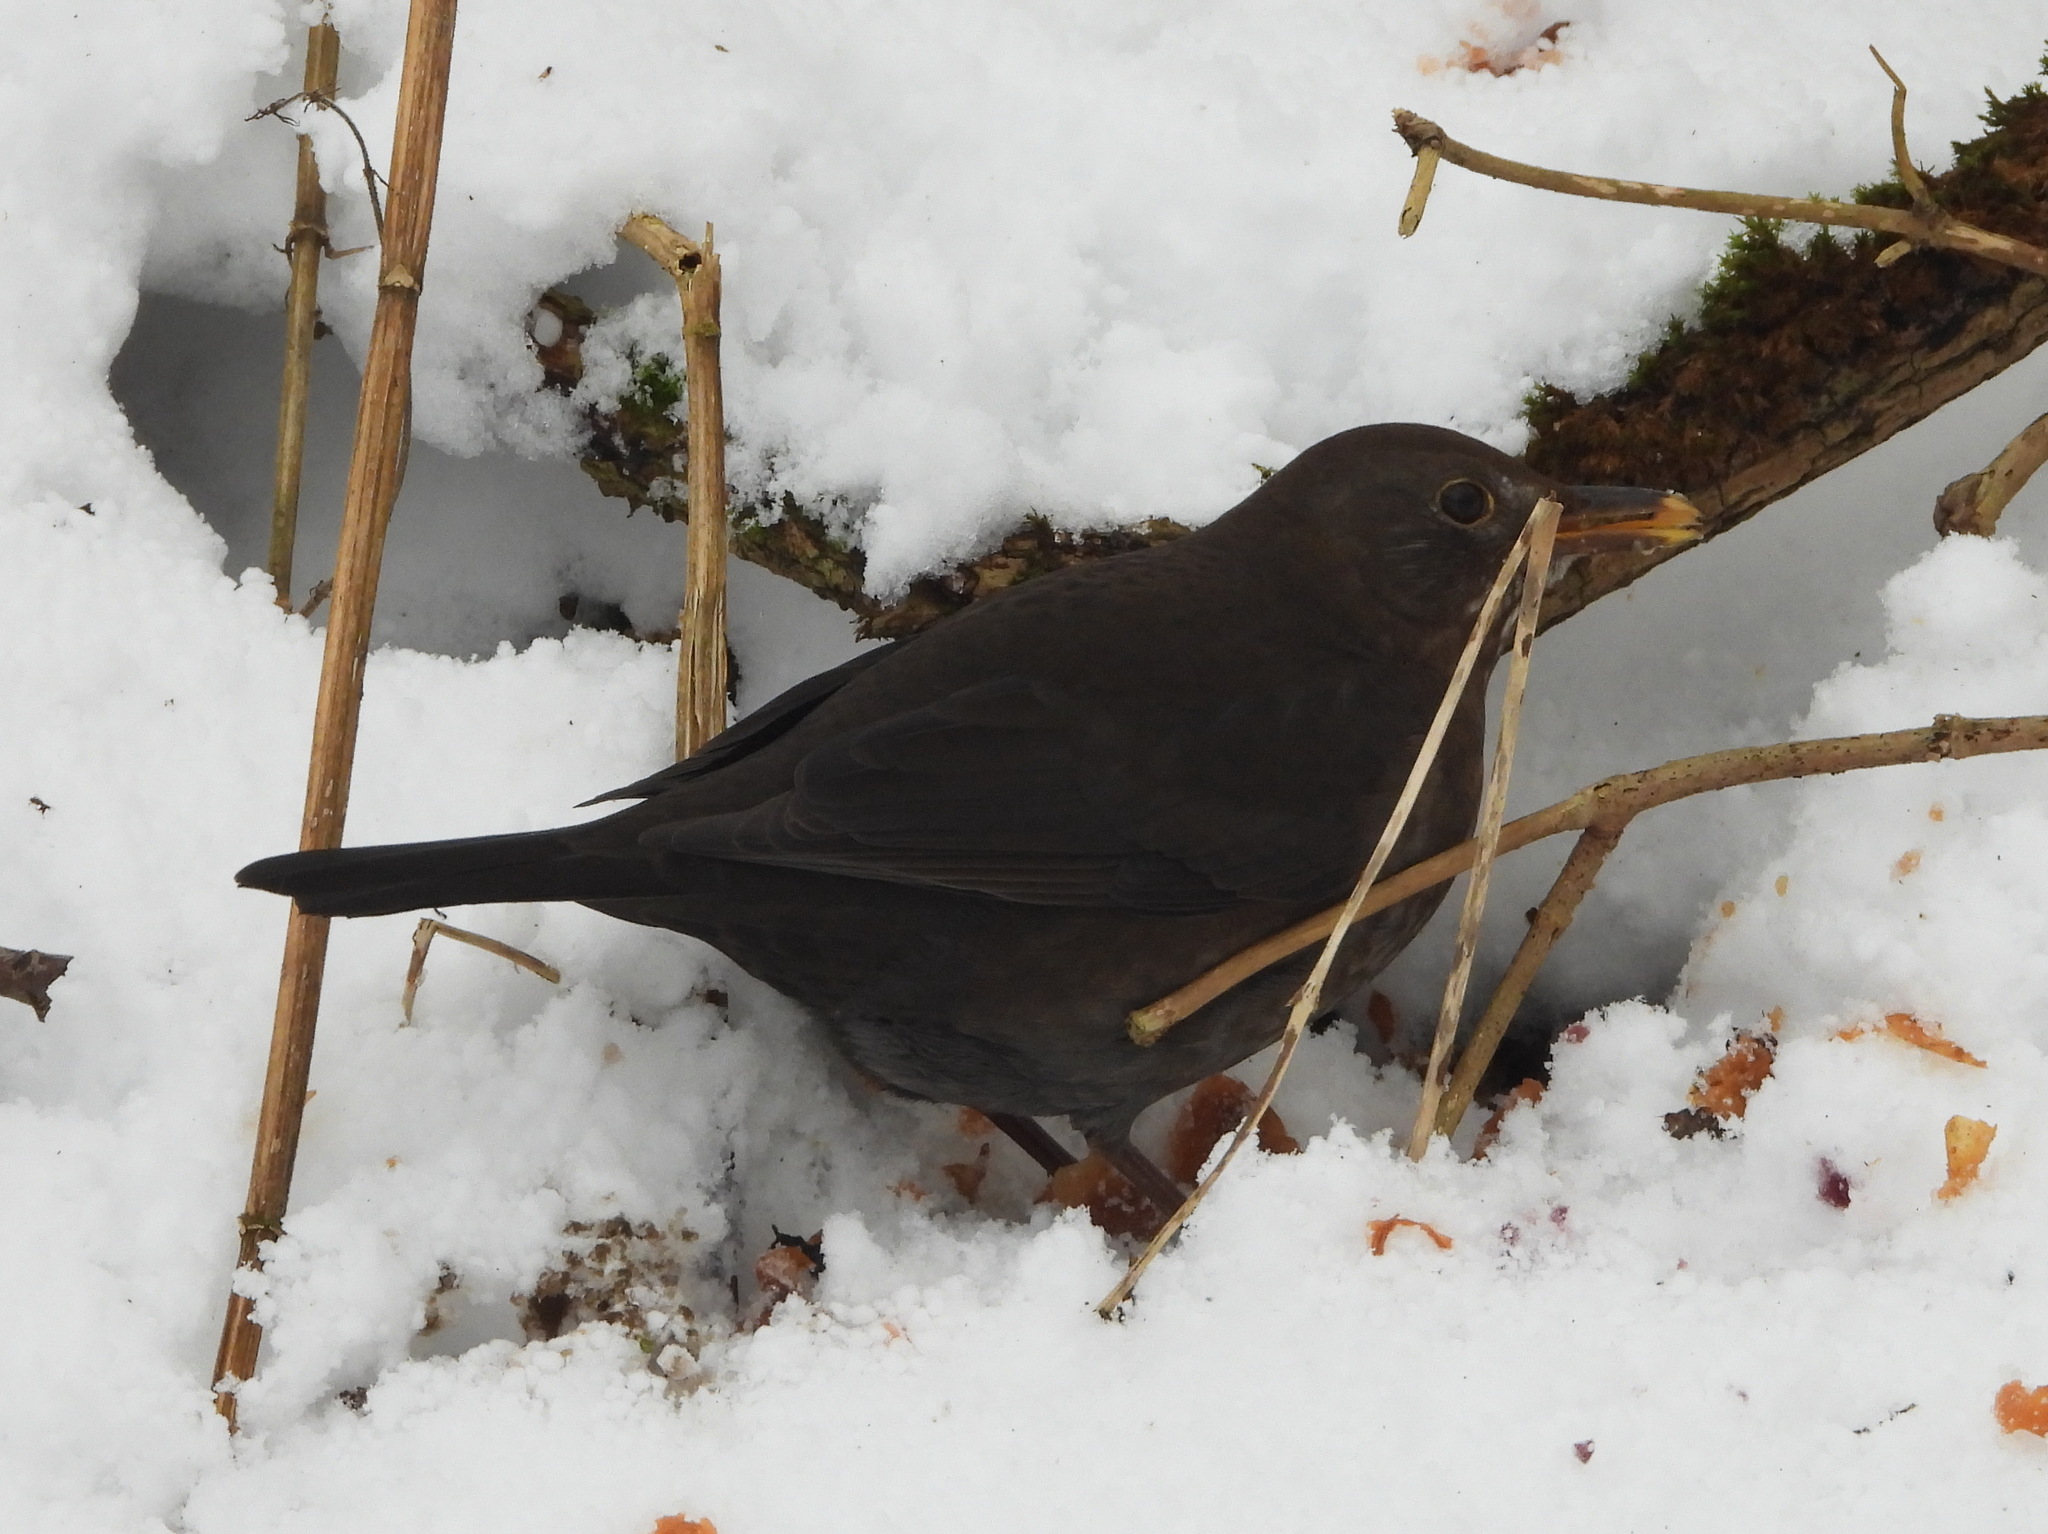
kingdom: Animalia
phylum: Chordata
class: Aves
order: Passeriformes
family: Turdidae
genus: Turdus
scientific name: Turdus merula
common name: Common blackbird
